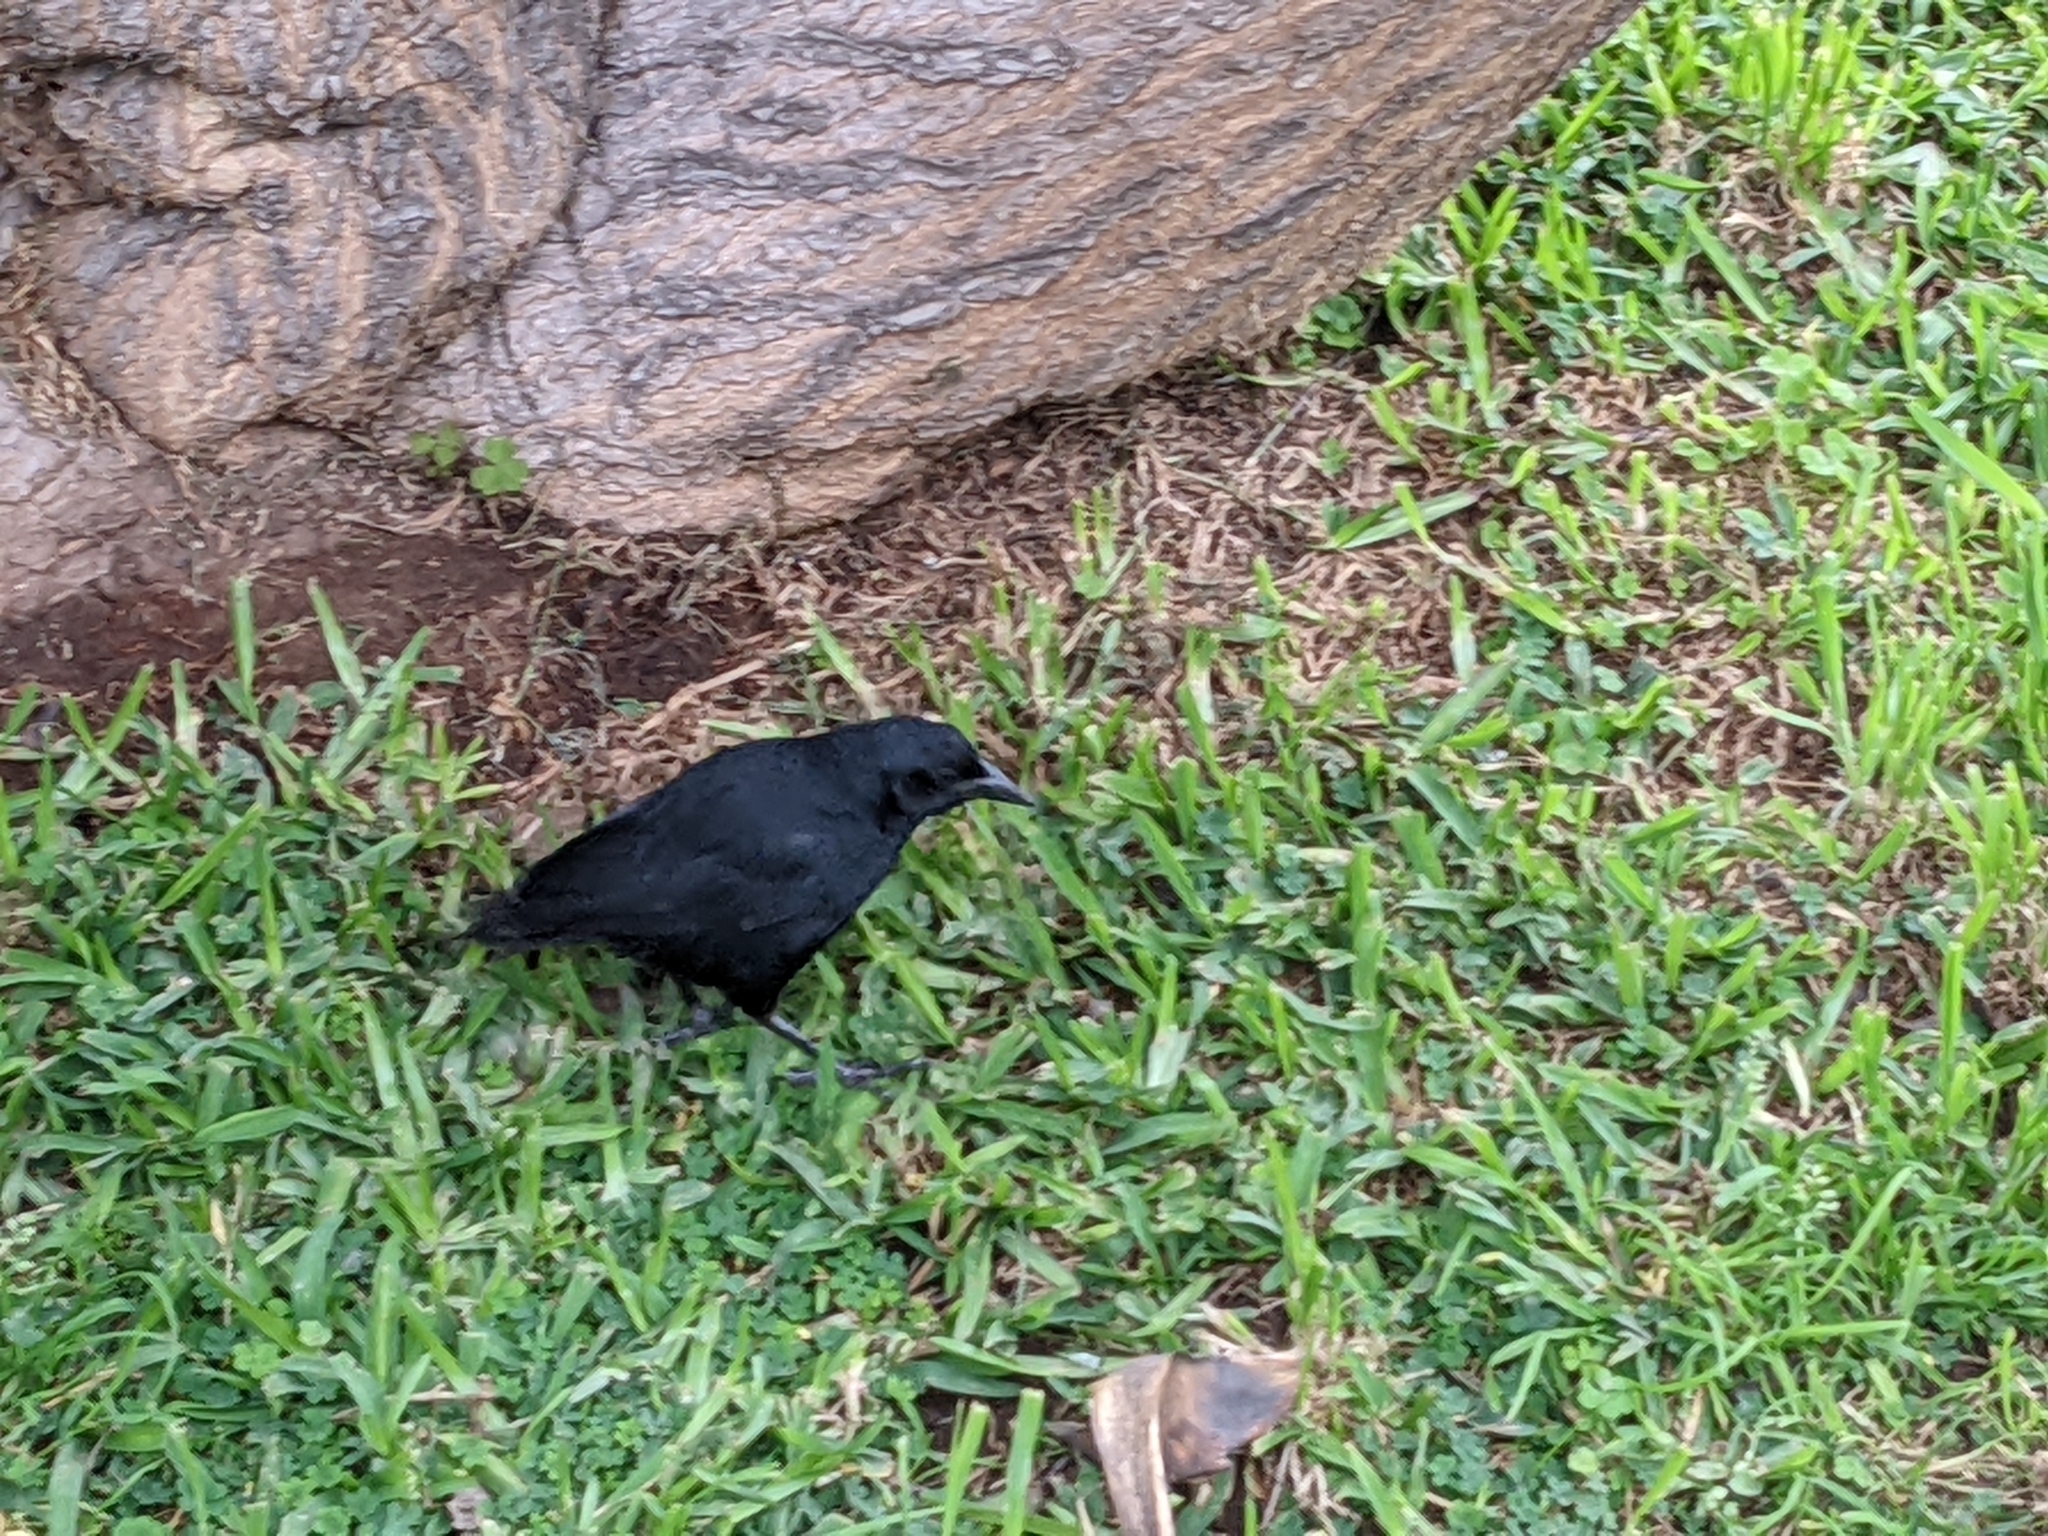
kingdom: Animalia
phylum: Chordata
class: Aves
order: Passeriformes
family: Icteridae
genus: Dives
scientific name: Dives warczewiczi
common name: Scrub blackbird
